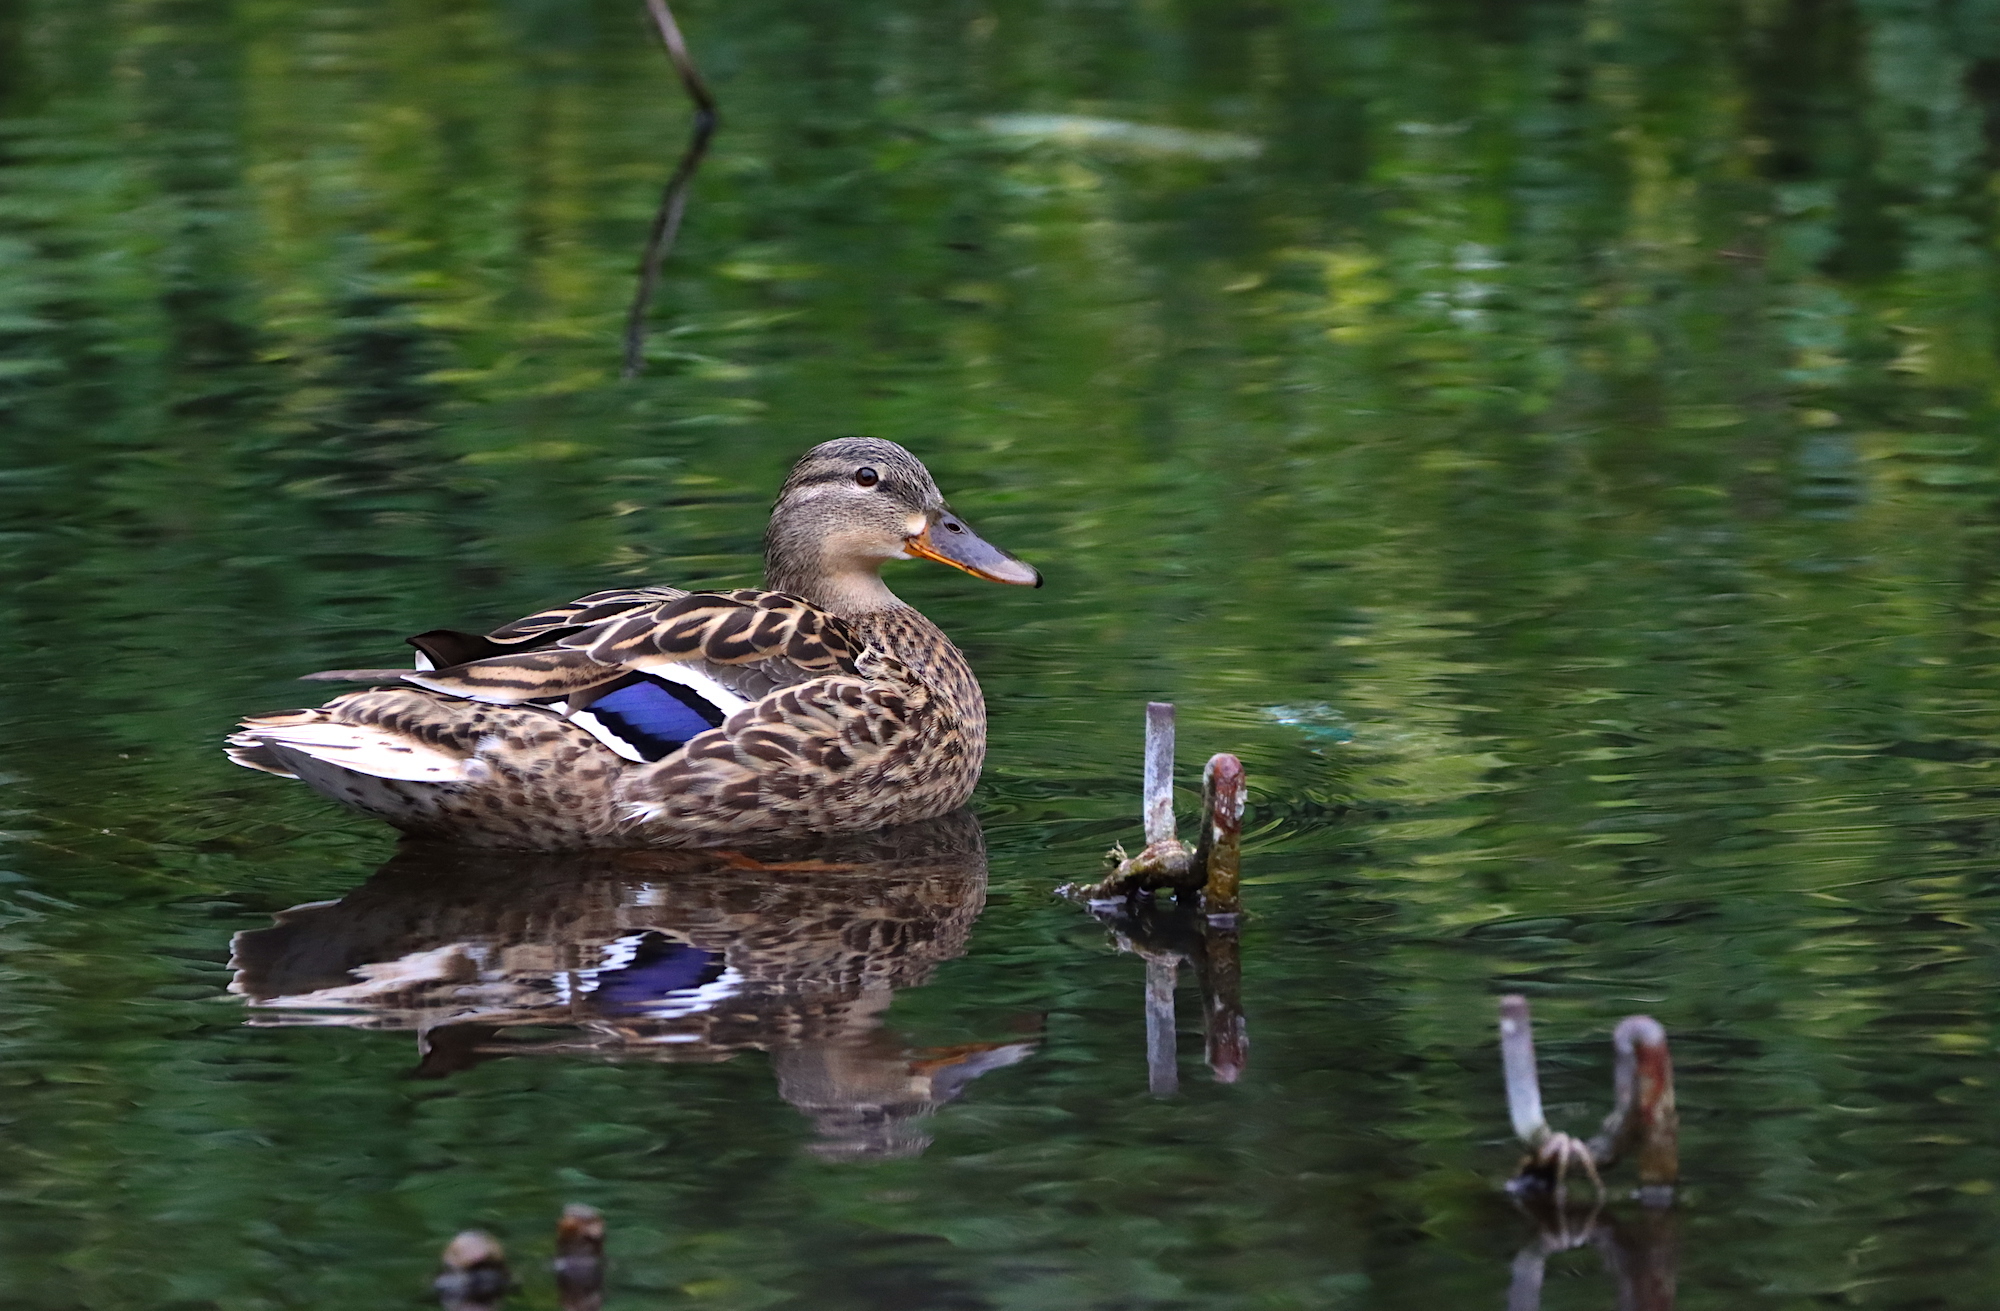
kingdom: Animalia
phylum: Chordata
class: Aves
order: Anseriformes
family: Anatidae
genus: Anas
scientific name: Anas platyrhynchos
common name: Mallard
